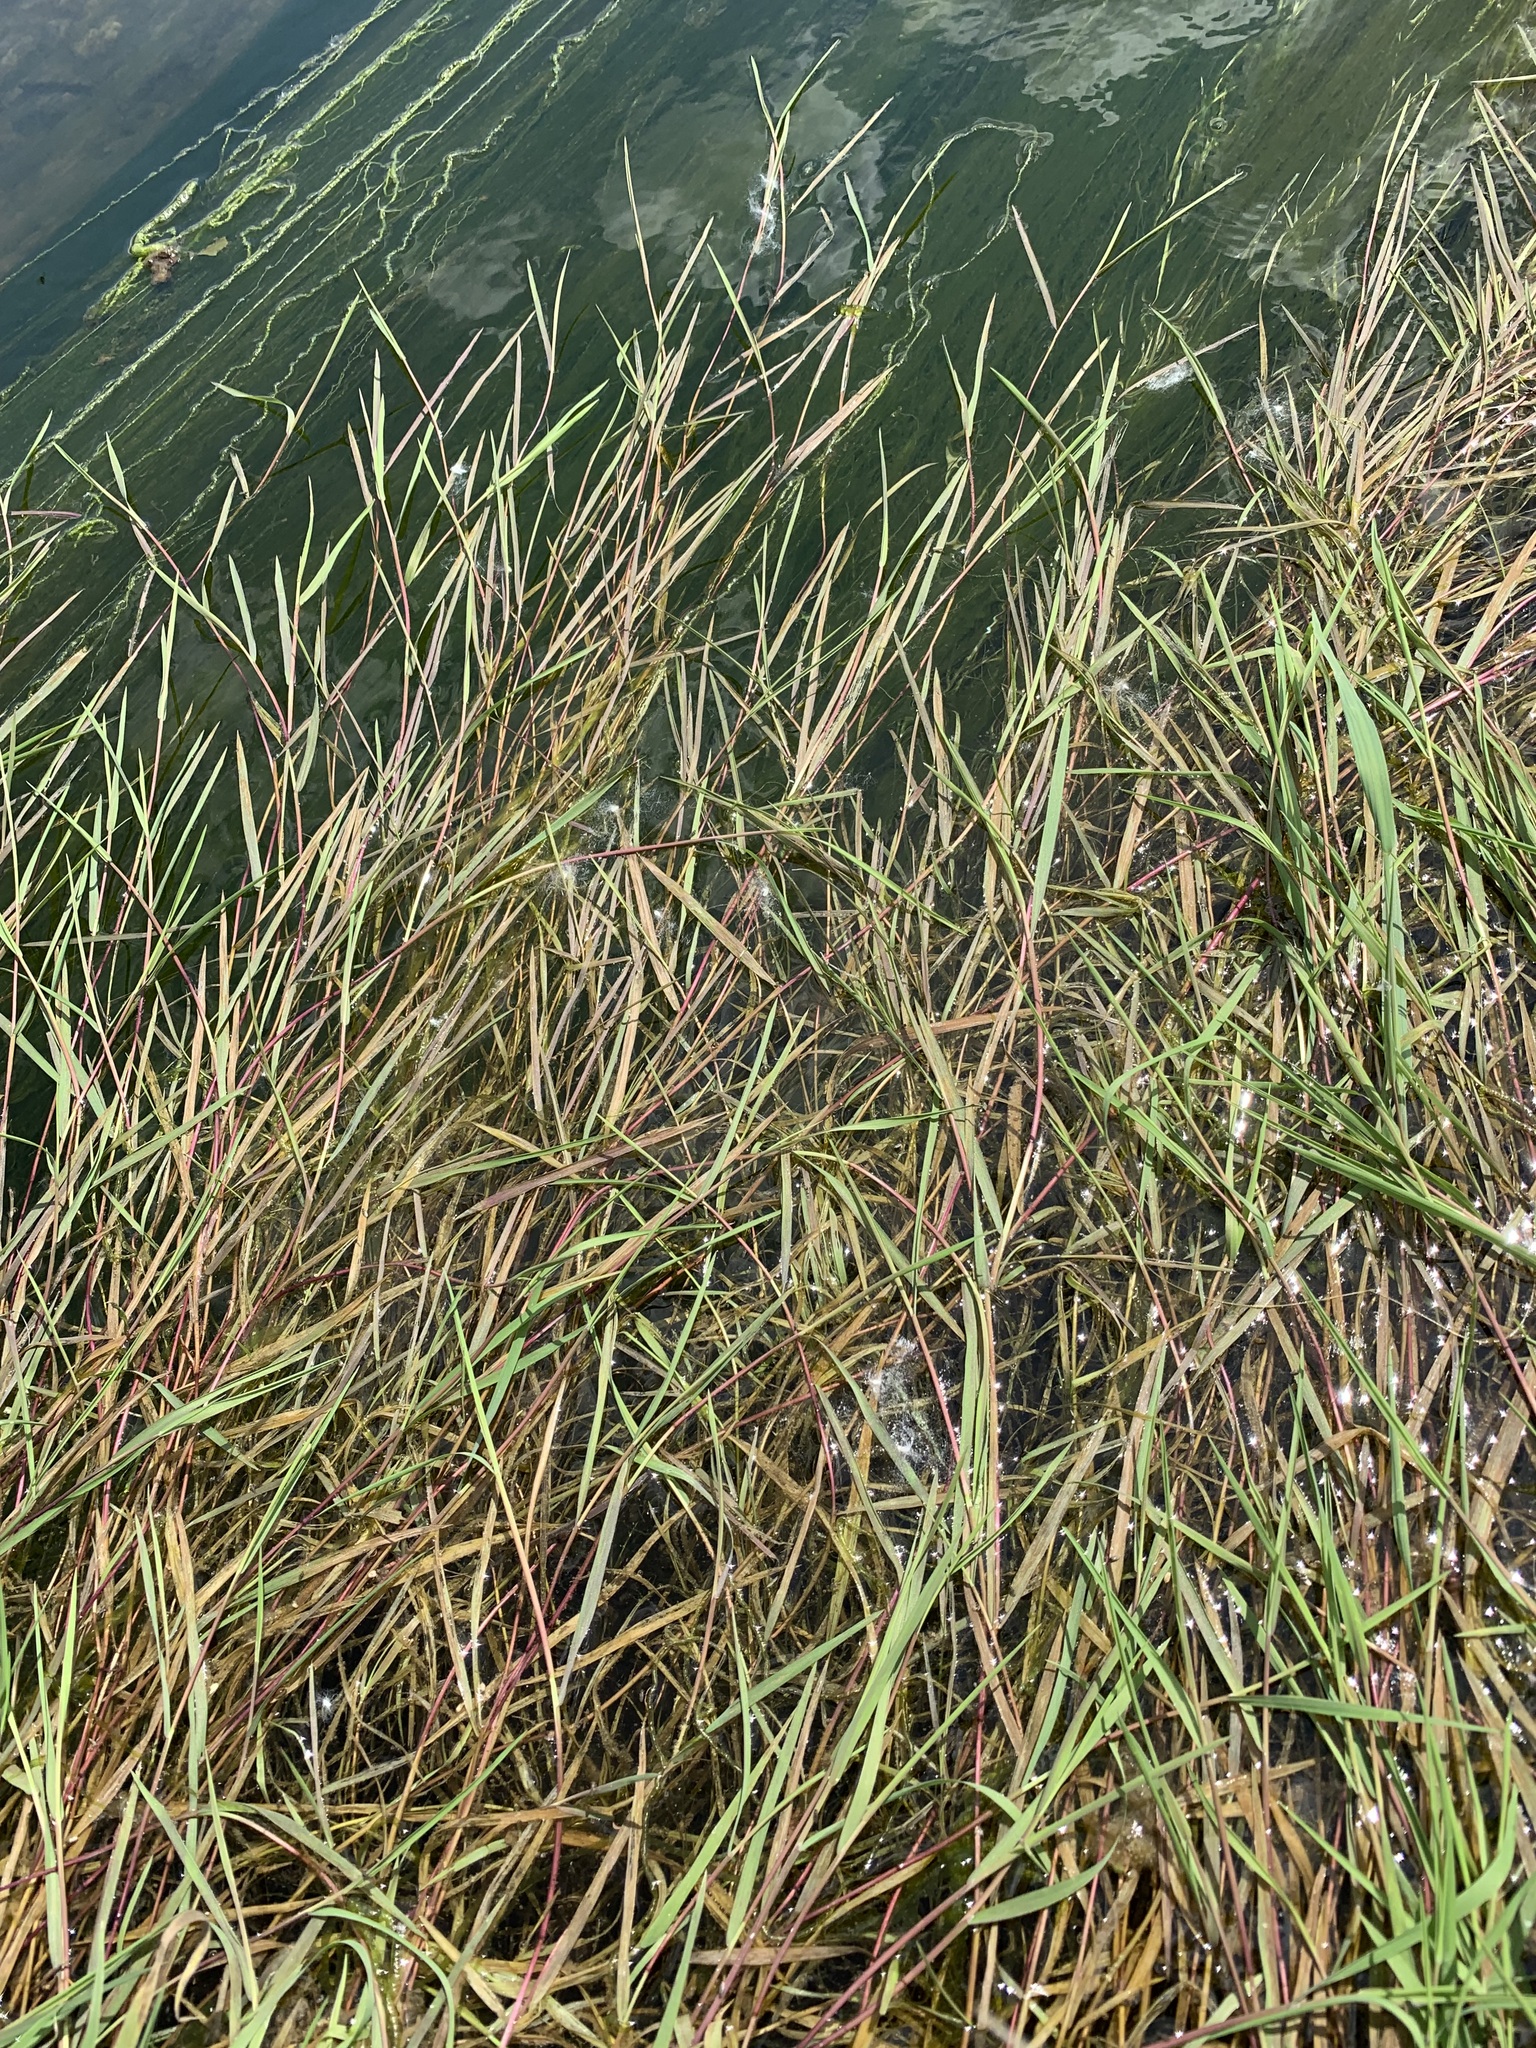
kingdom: Plantae
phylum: Tracheophyta
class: Liliopsida
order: Poales
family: Poaceae
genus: Agrostis
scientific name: Agrostis stolonifera
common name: Creeping bentgrass
